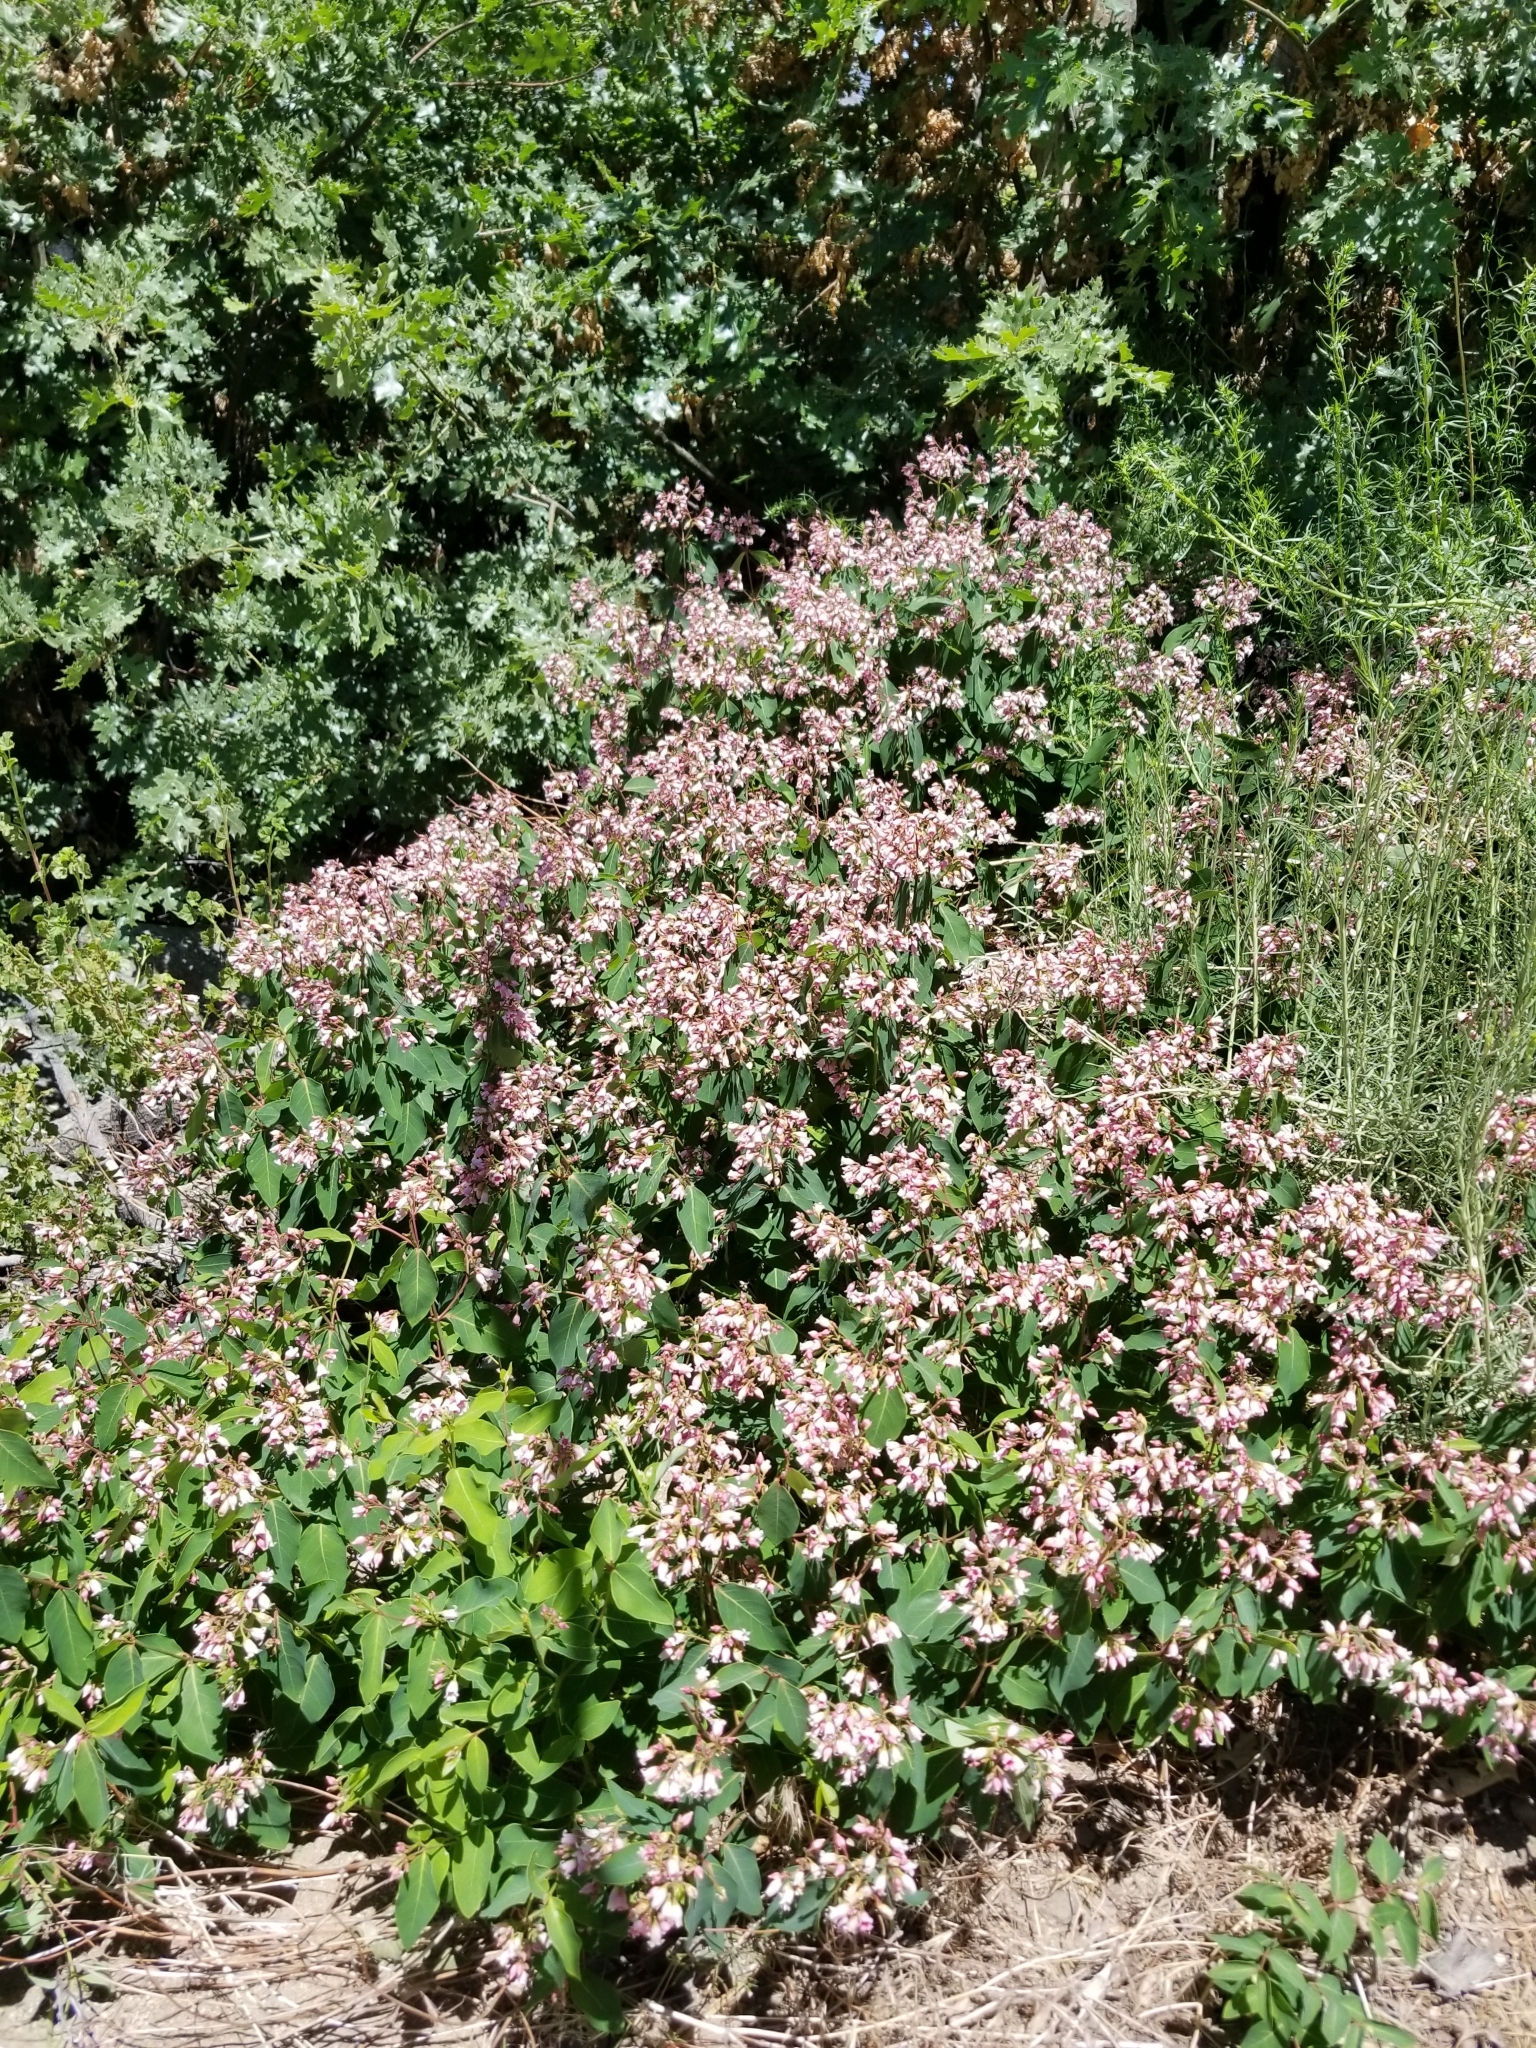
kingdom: Plantae
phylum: Tracheophyta
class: Magnoliopsida
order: Gentianales
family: Apocynaceae
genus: Apocynum
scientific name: Apocynum androsaemifolium
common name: Spreading dogbane
